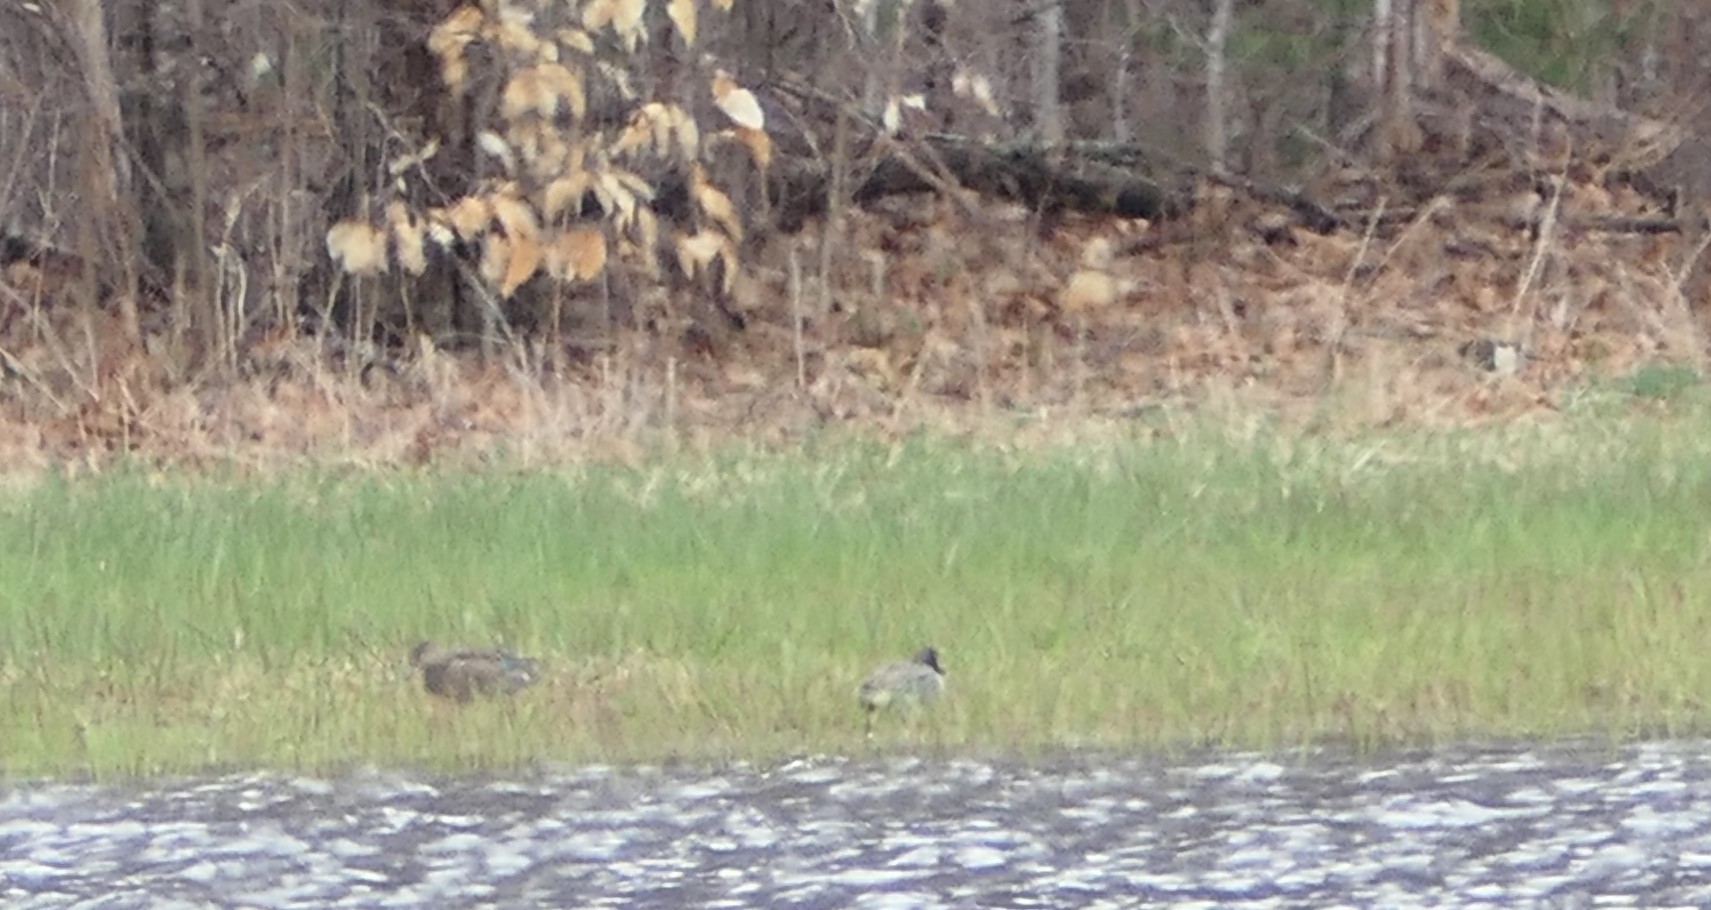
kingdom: Animalia
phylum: Chordata
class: Aves
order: Anseriformes
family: Anatidae
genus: Anas
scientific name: Anas crecca
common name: Eurasian teal
